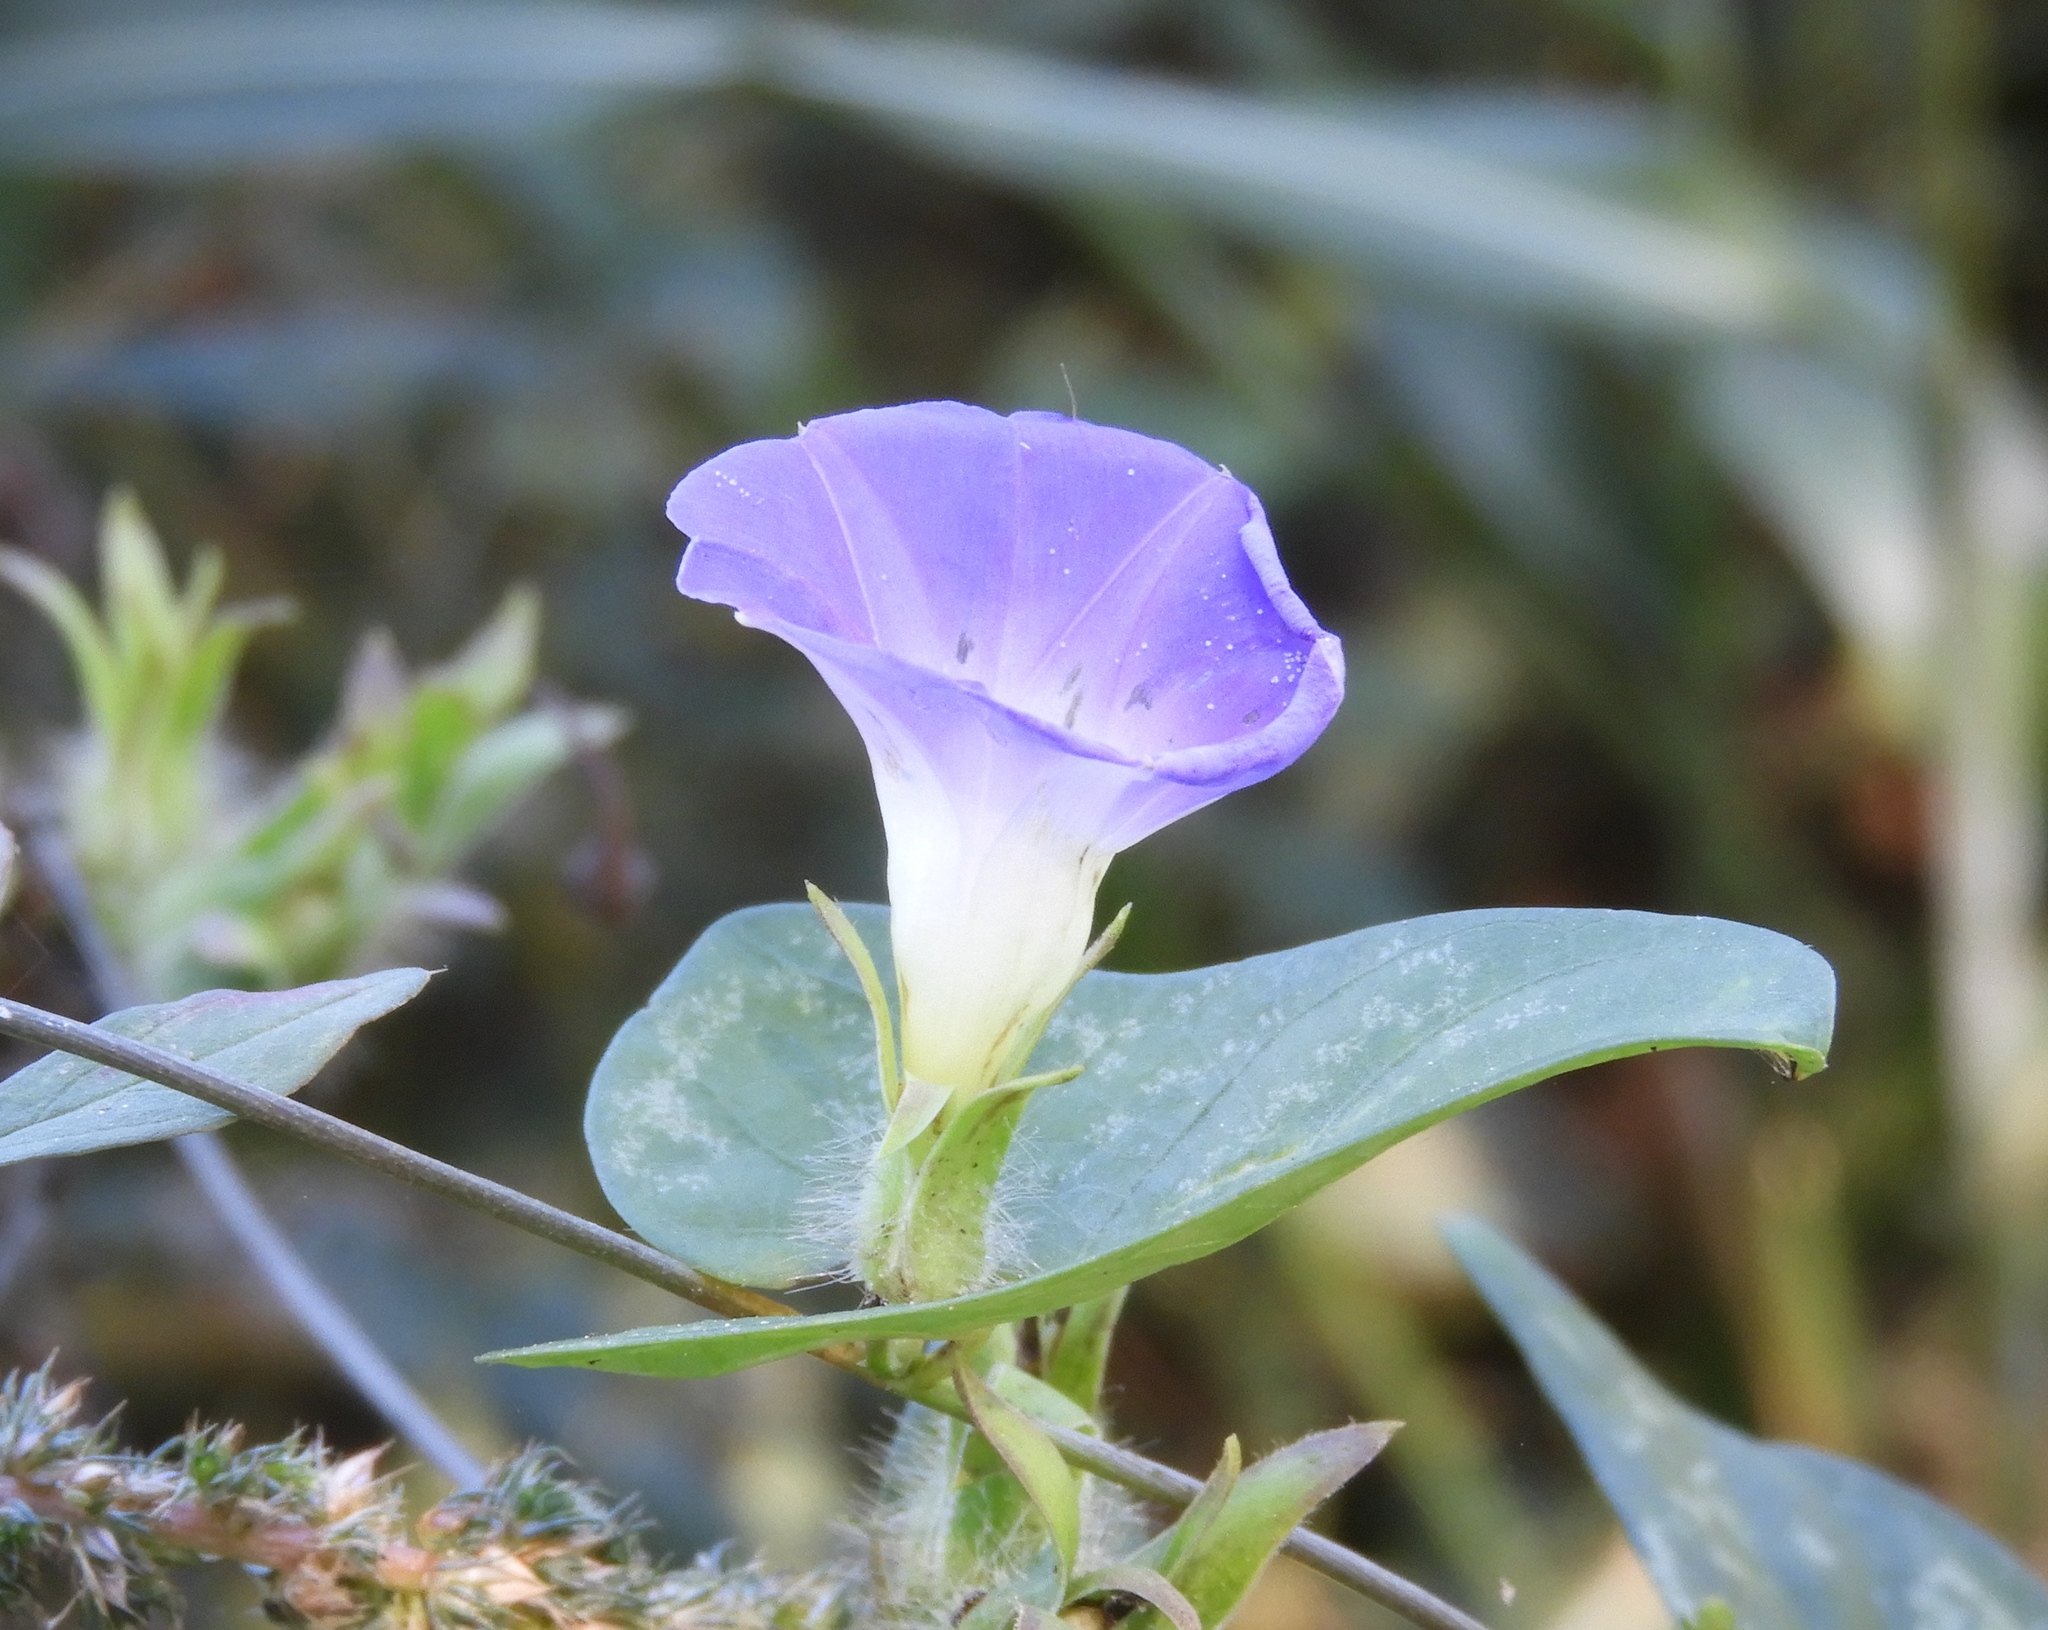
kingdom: Plantae
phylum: Tracheophyta
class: Magnoliopsida
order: Solanales
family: Convolvulaceae
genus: Ipomoea
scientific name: Ipomoea meyeri
